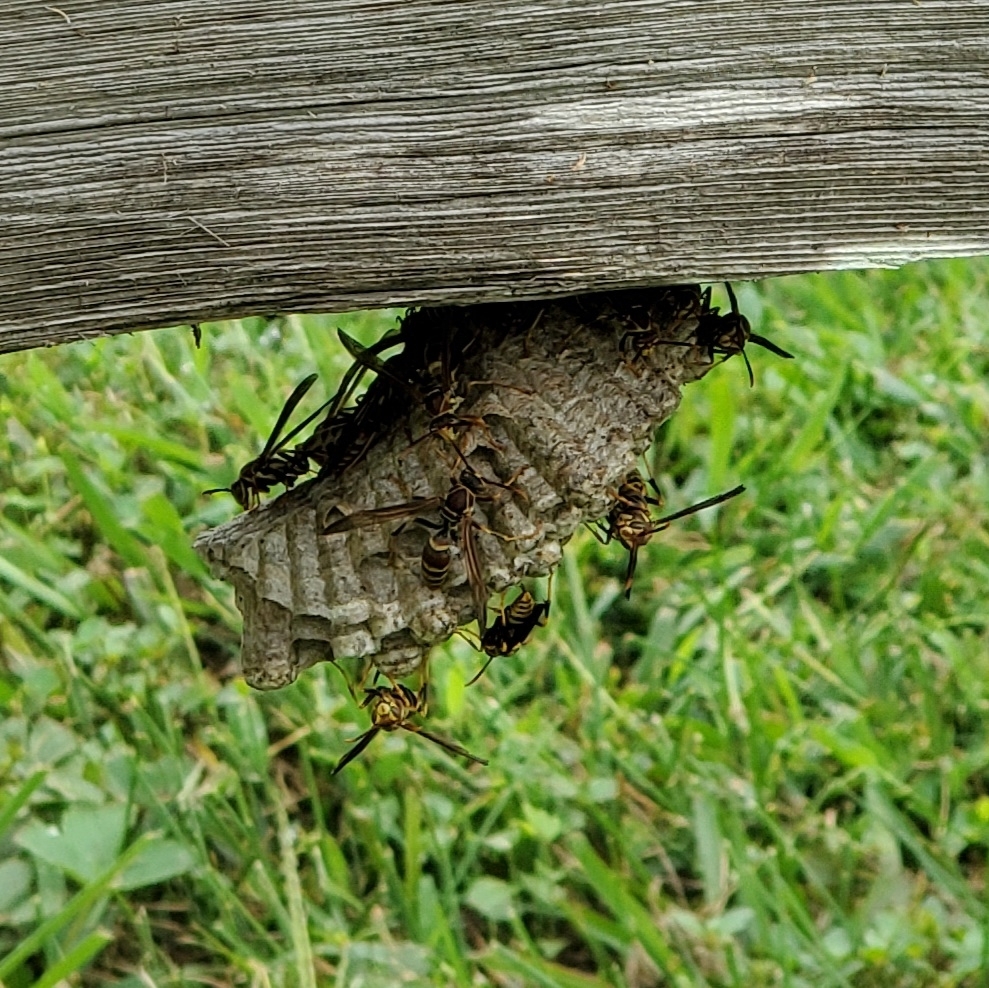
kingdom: Animalia
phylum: Arthropoda
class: Insecta
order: Hymenoptera
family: Eumenidae
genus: Polistes
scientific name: Polistes exclamans
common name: Paper wasp
